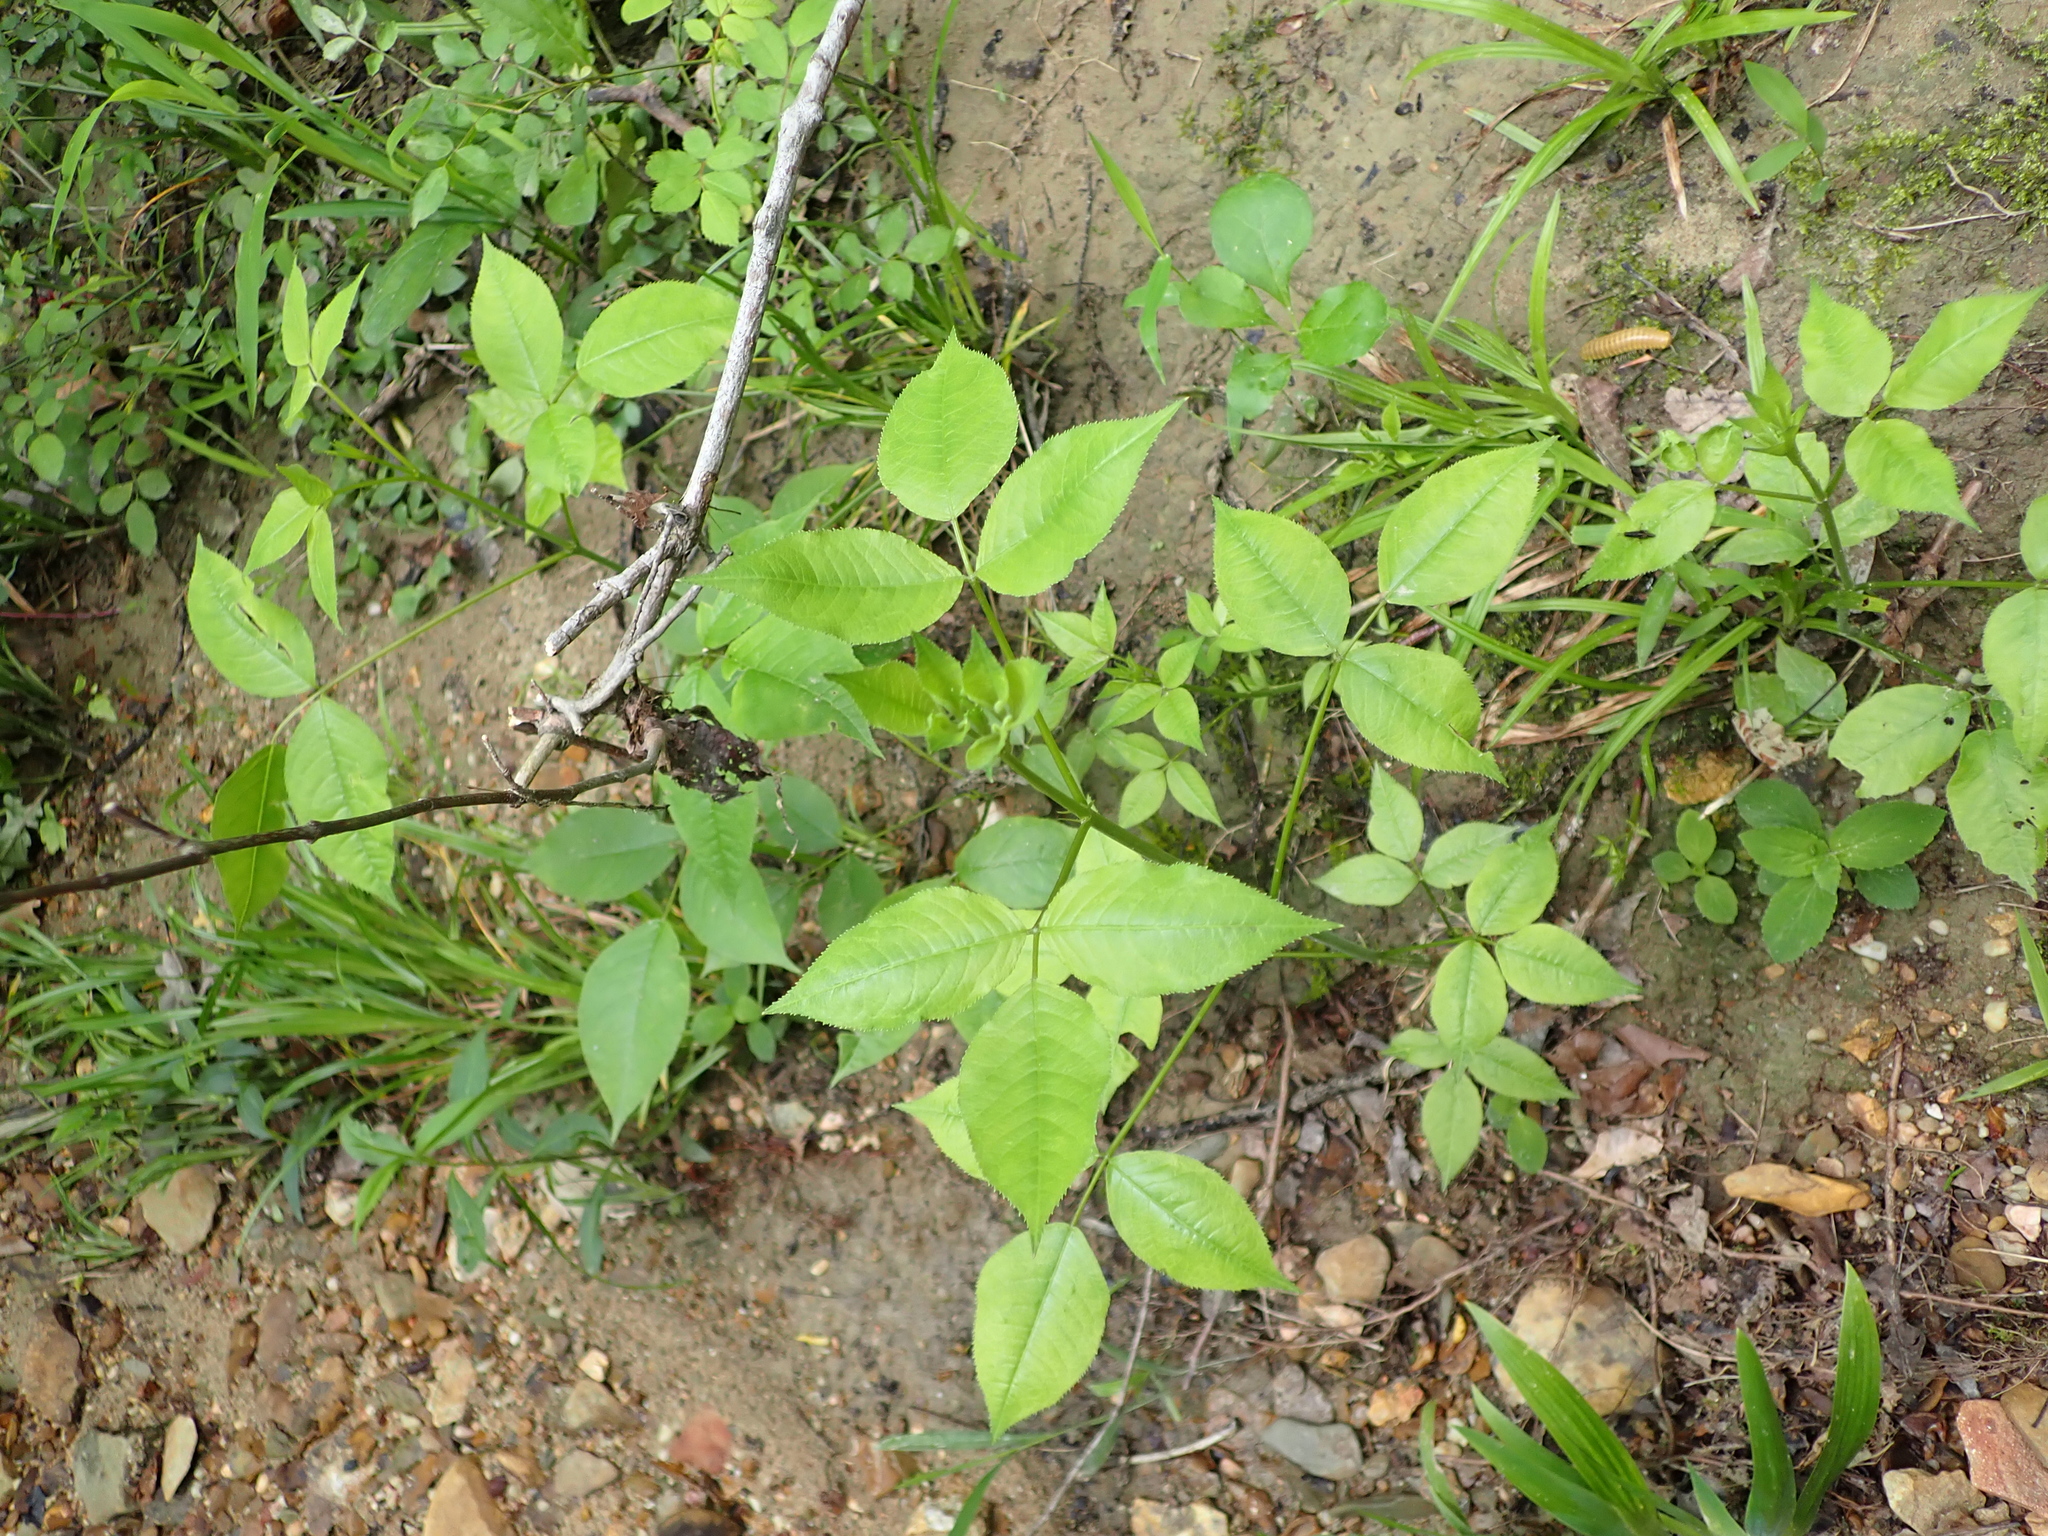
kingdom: Plantae
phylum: Tracheophyta
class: Magnoliopsida
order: Crossosomatales
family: Staphyleaceae
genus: Staphylea
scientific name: Staphylea trifolia
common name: American bladdernut
